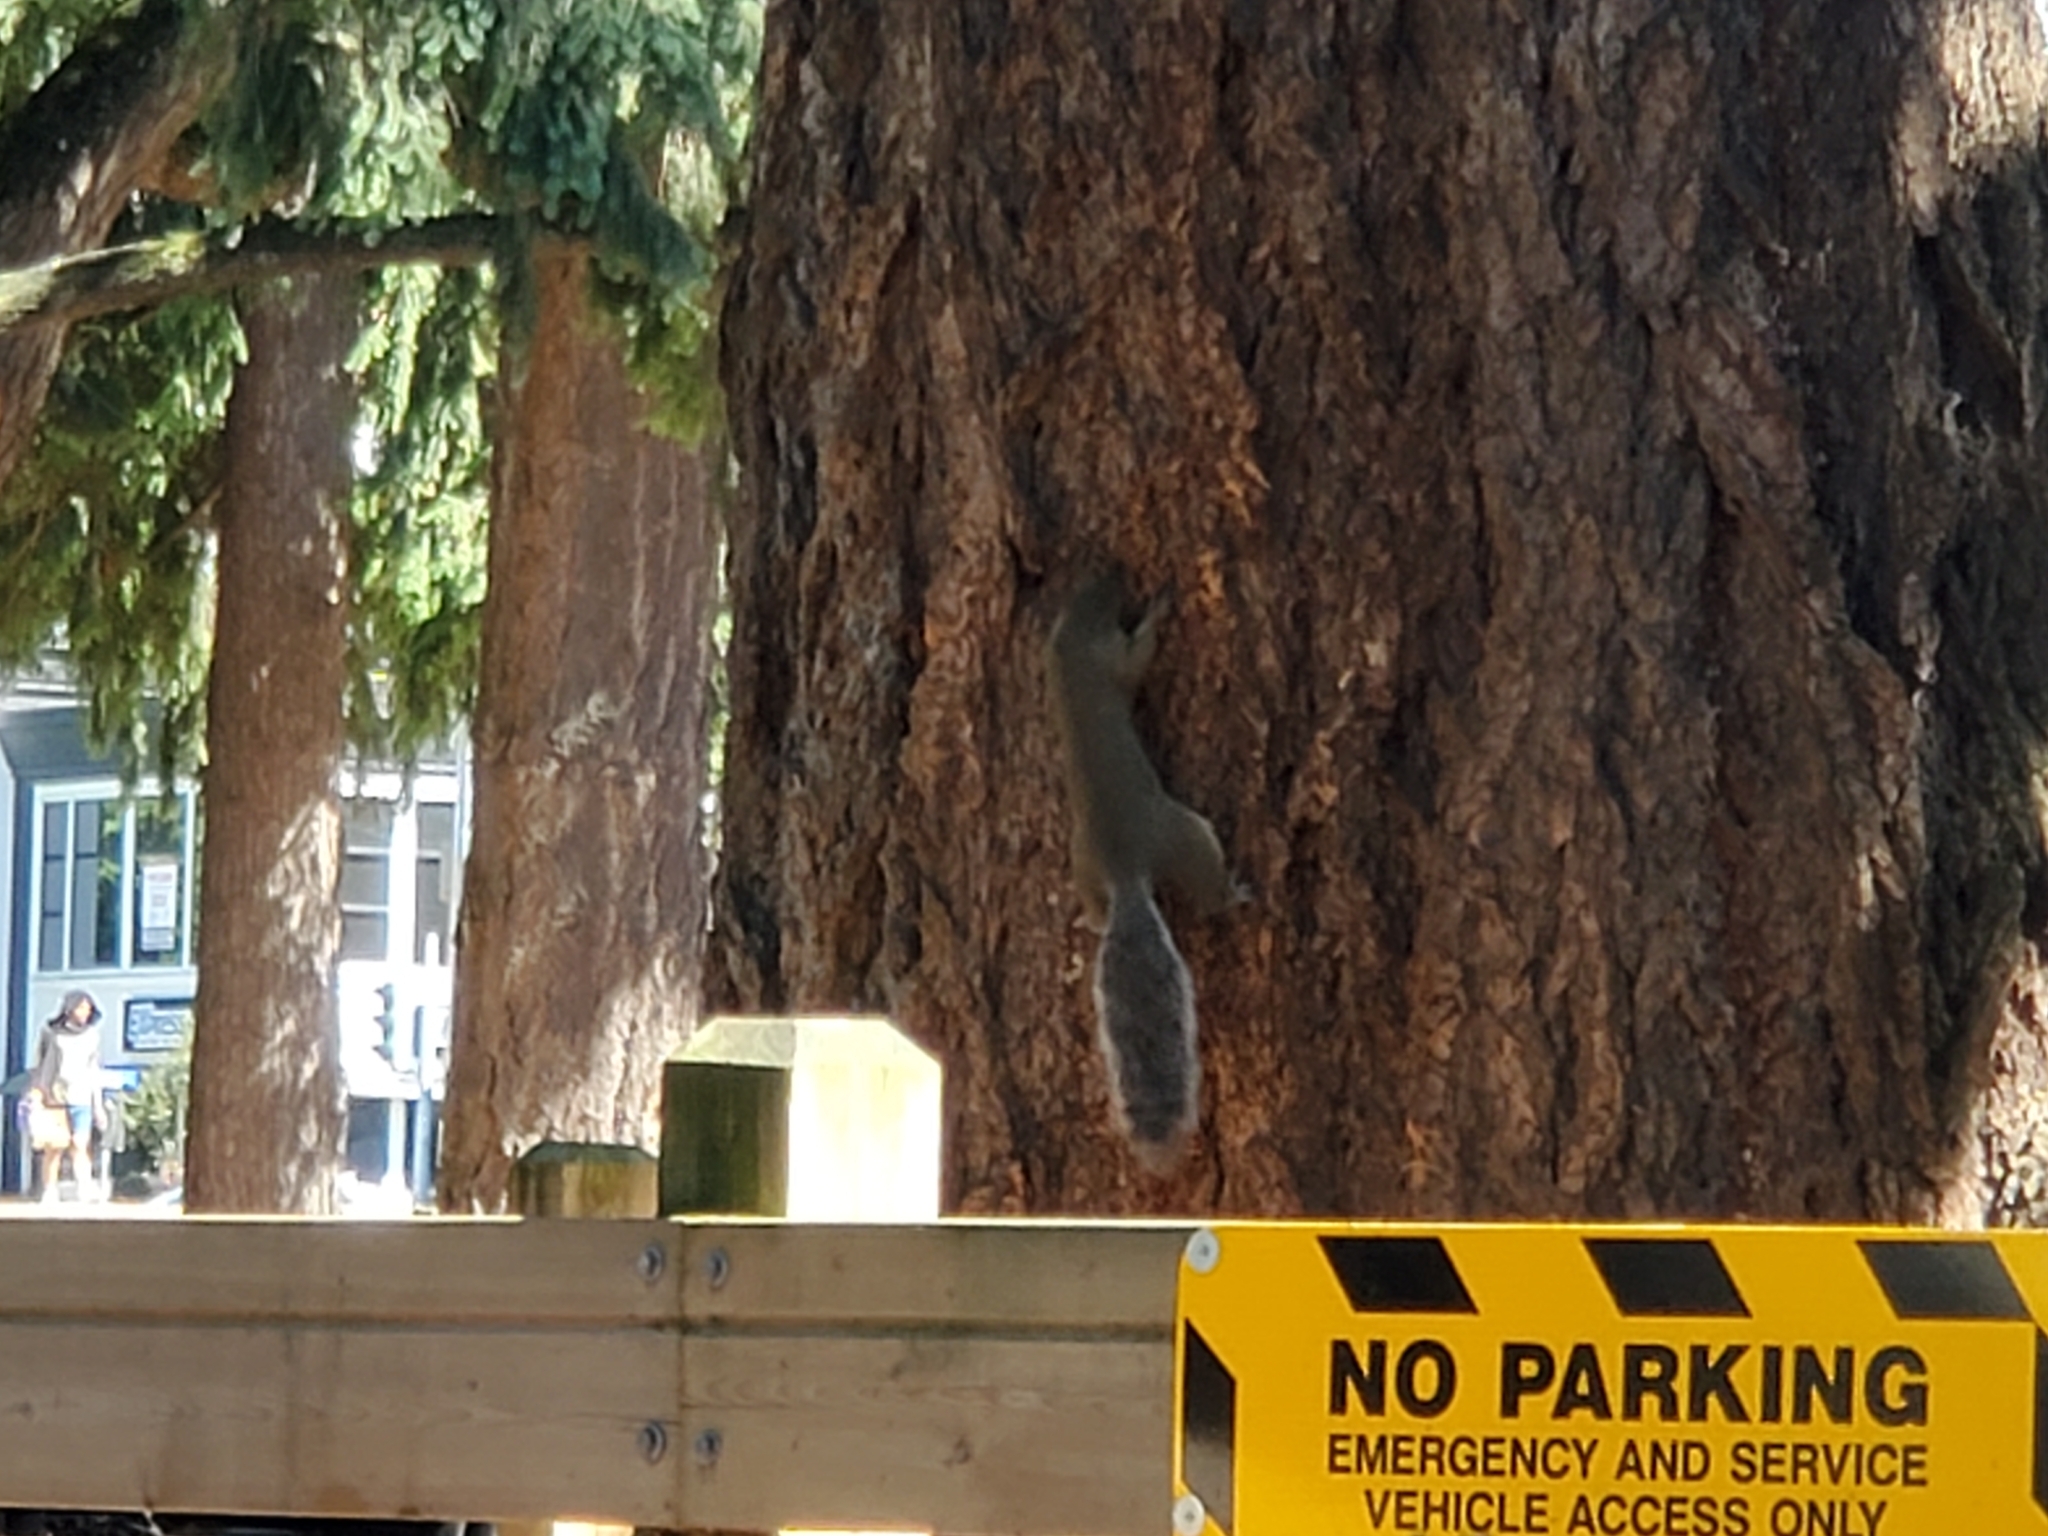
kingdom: Animalia
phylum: Chordata
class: Mammalia
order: Rodentia
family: Sciuridae
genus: Sciurus
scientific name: Sciurus carolinensis
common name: Eastern gray squirrel
